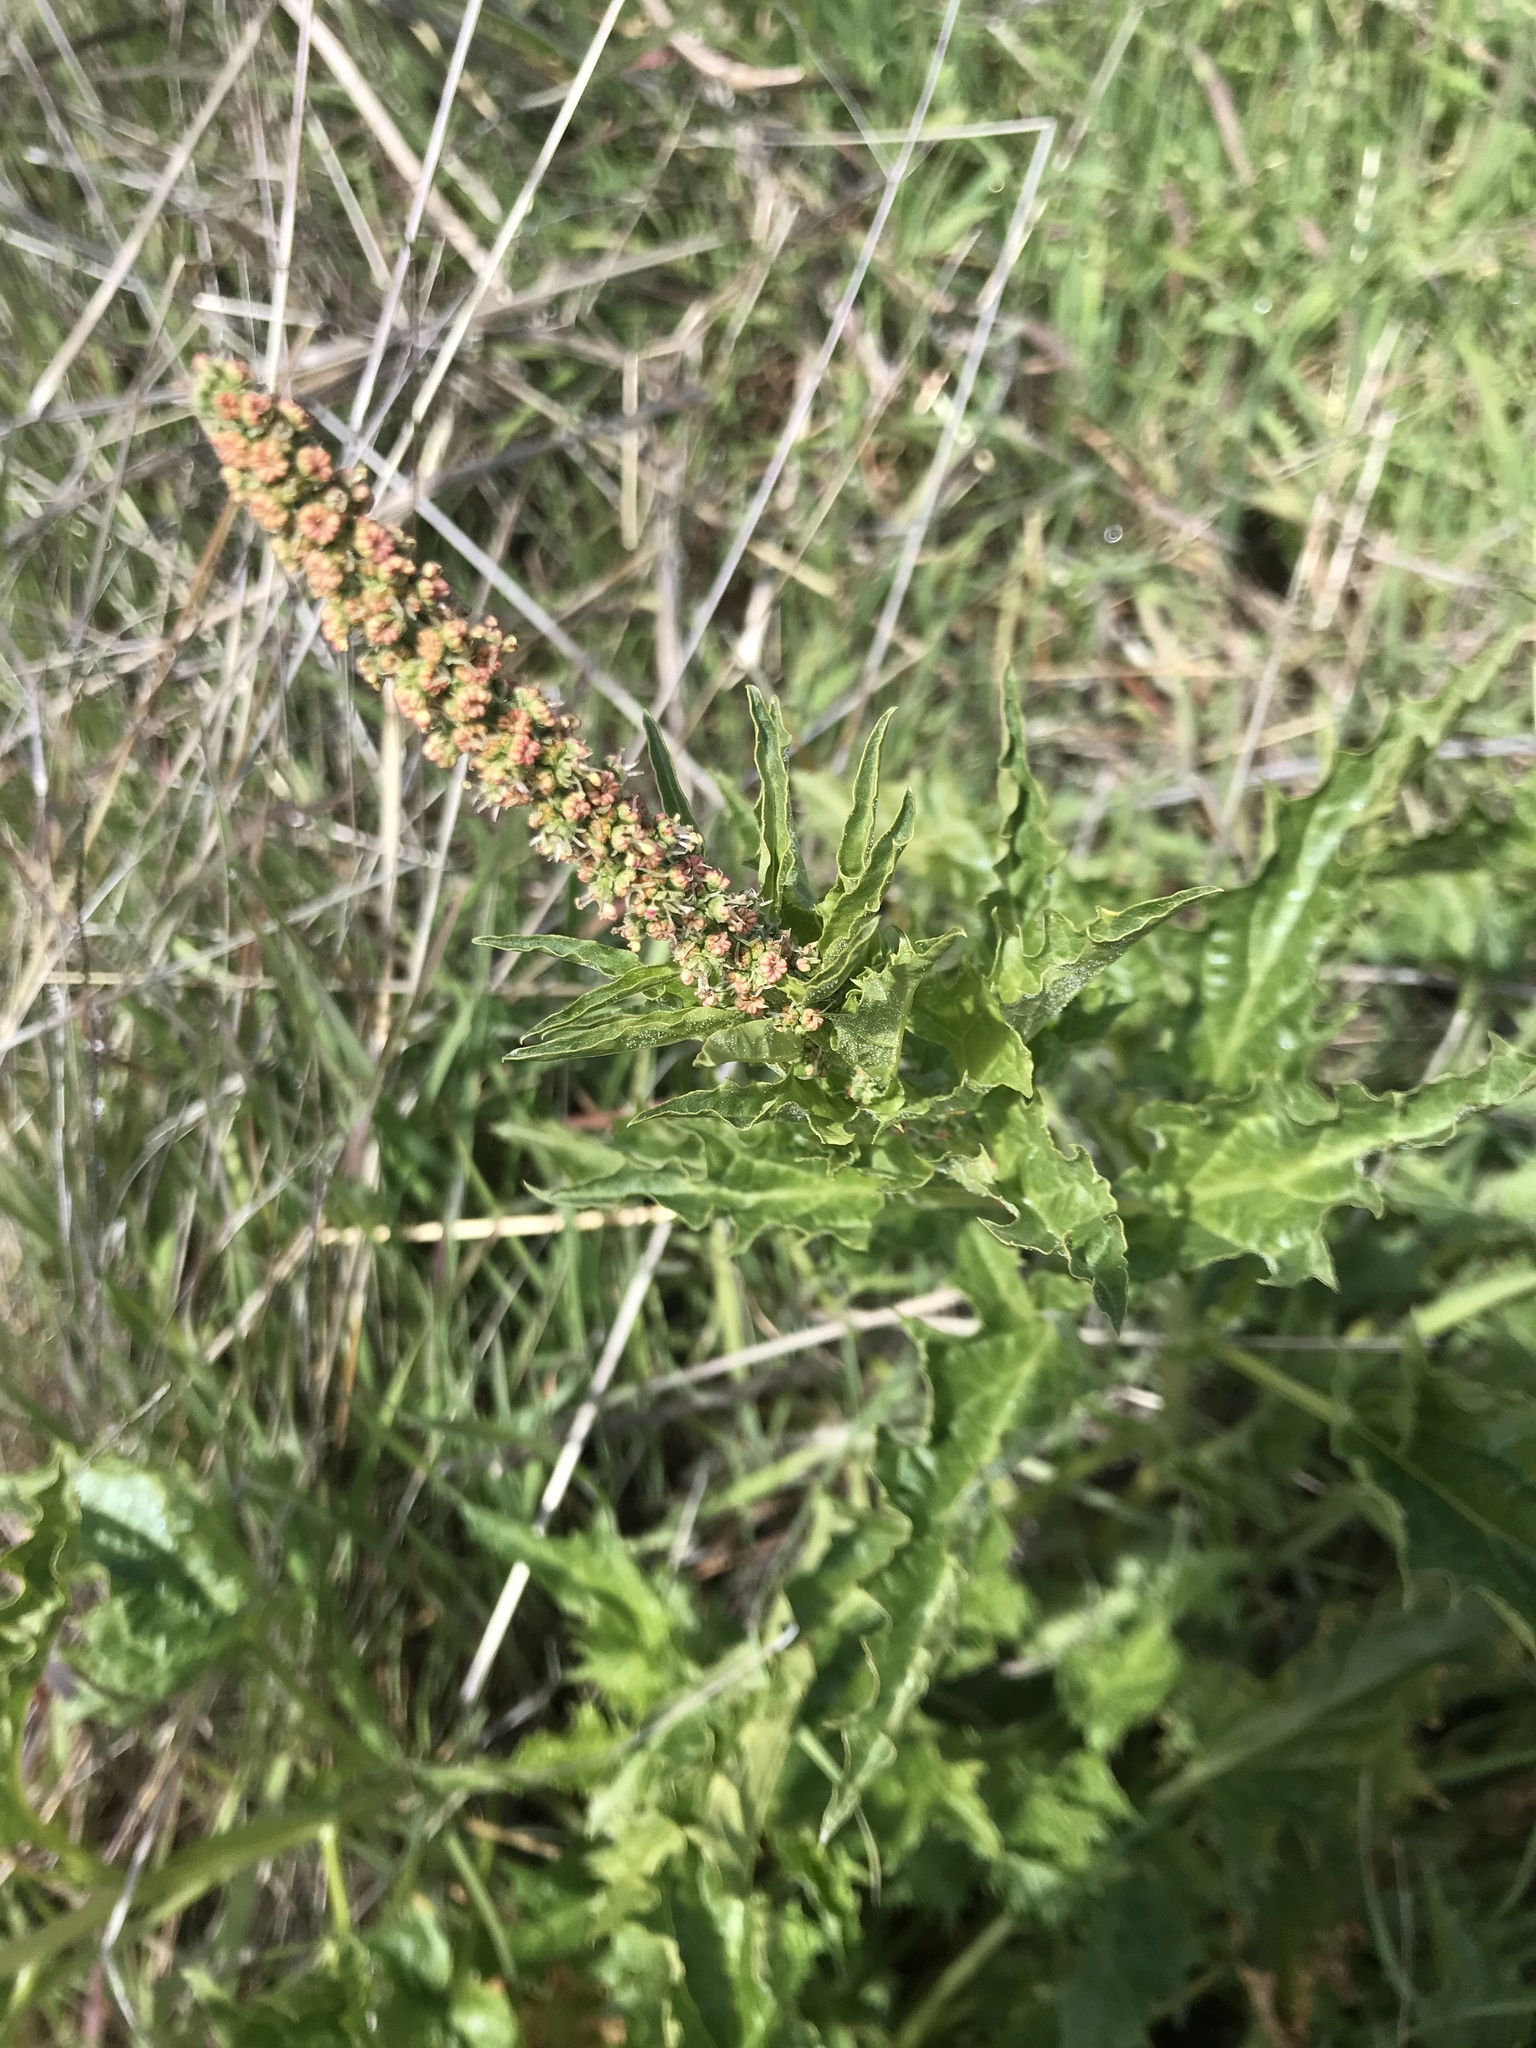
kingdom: Plantae
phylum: Tracheophyta
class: Magnoliopsida
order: Caryophyllales
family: Amaranthaceae
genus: Blitum
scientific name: Blitum californicum
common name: California goosefoot
